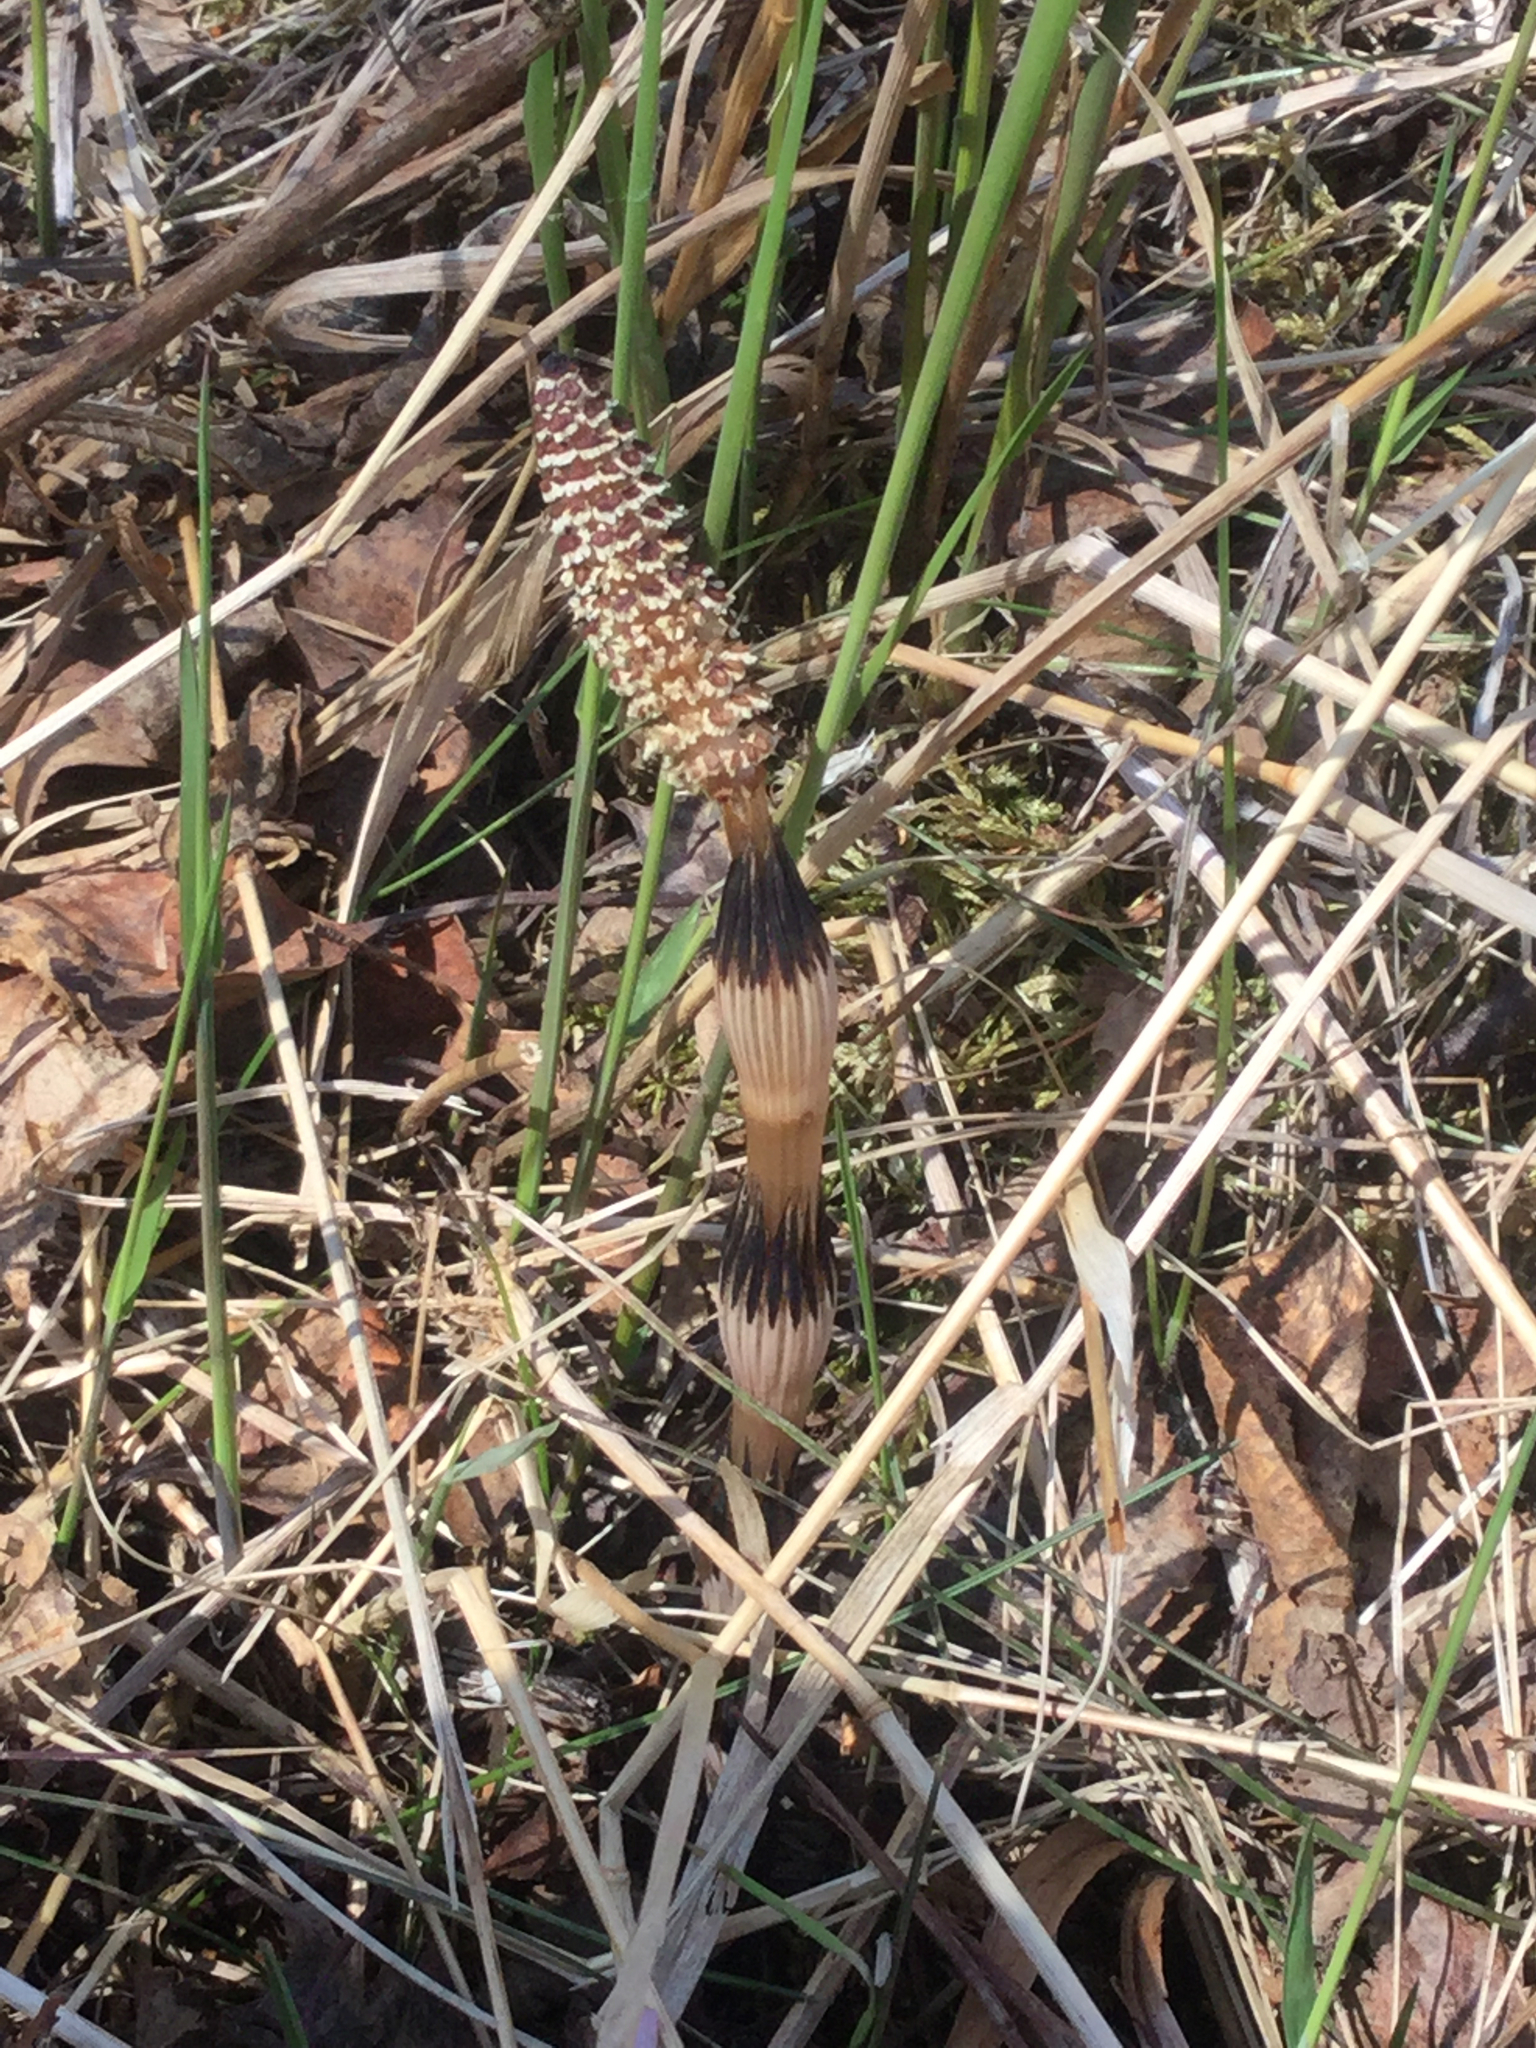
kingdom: Plantae
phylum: Tracheophyta
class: Polypodiopsida
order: Equisetales
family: Equisetaceae
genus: Equisetum
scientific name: Equisetum arvense
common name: Field horsetail
